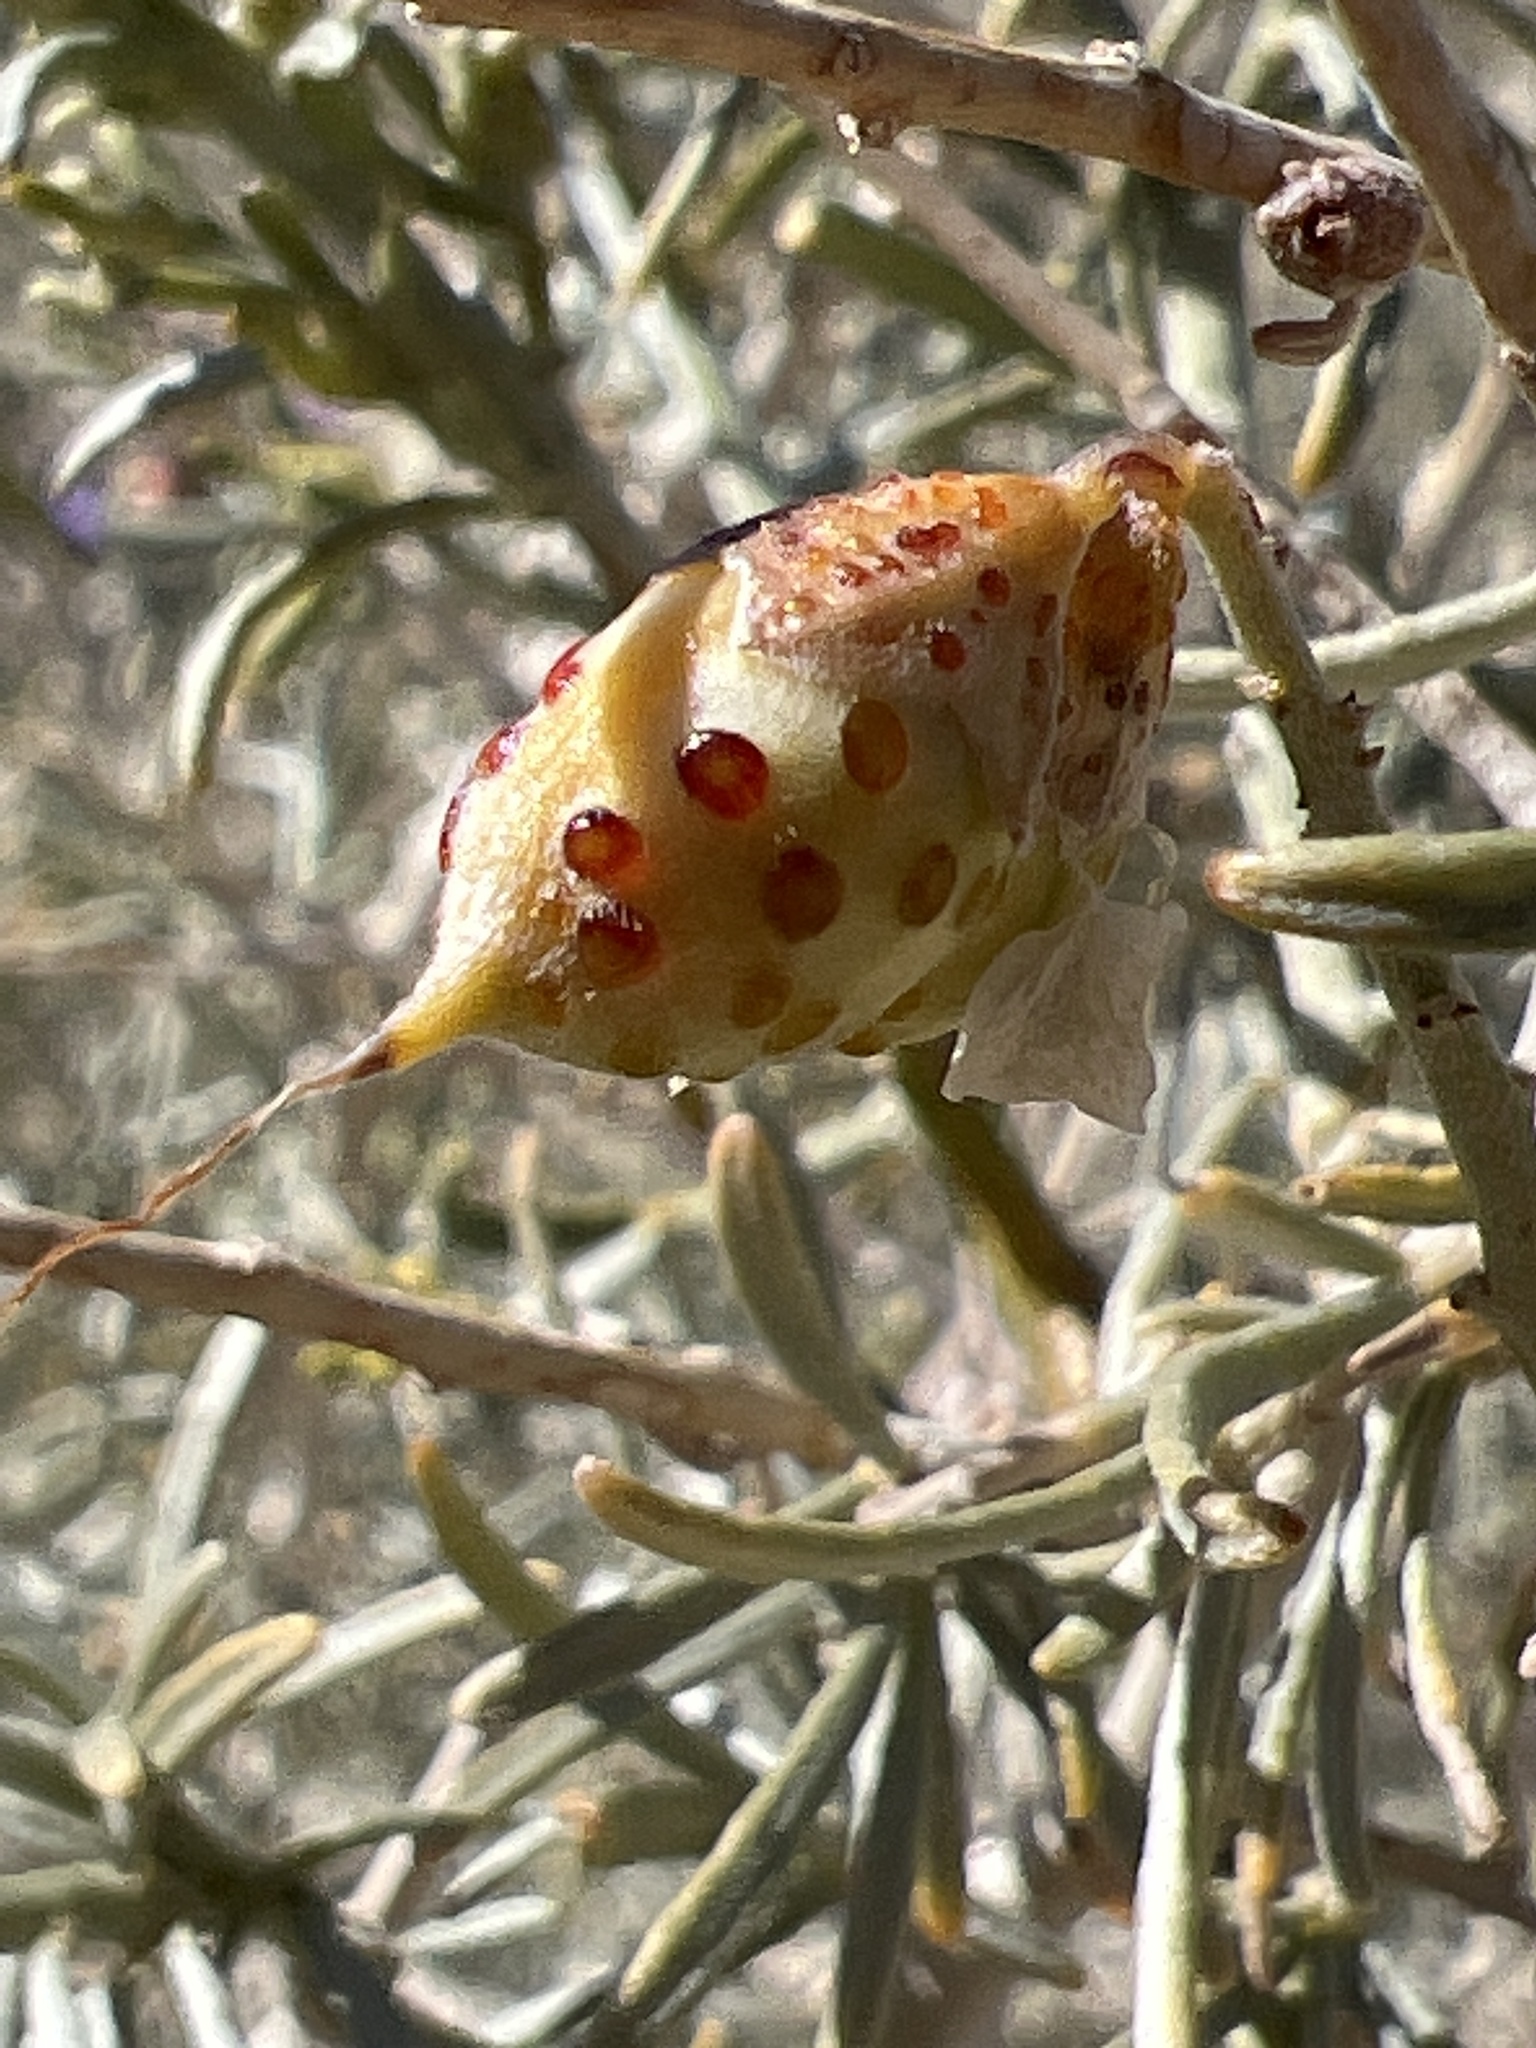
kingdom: Plantae
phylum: Tracheophyta
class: Magnoliopsida
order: Fabales
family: Fabaceae
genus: Psorothamnus
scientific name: Psorothamnus schottii
